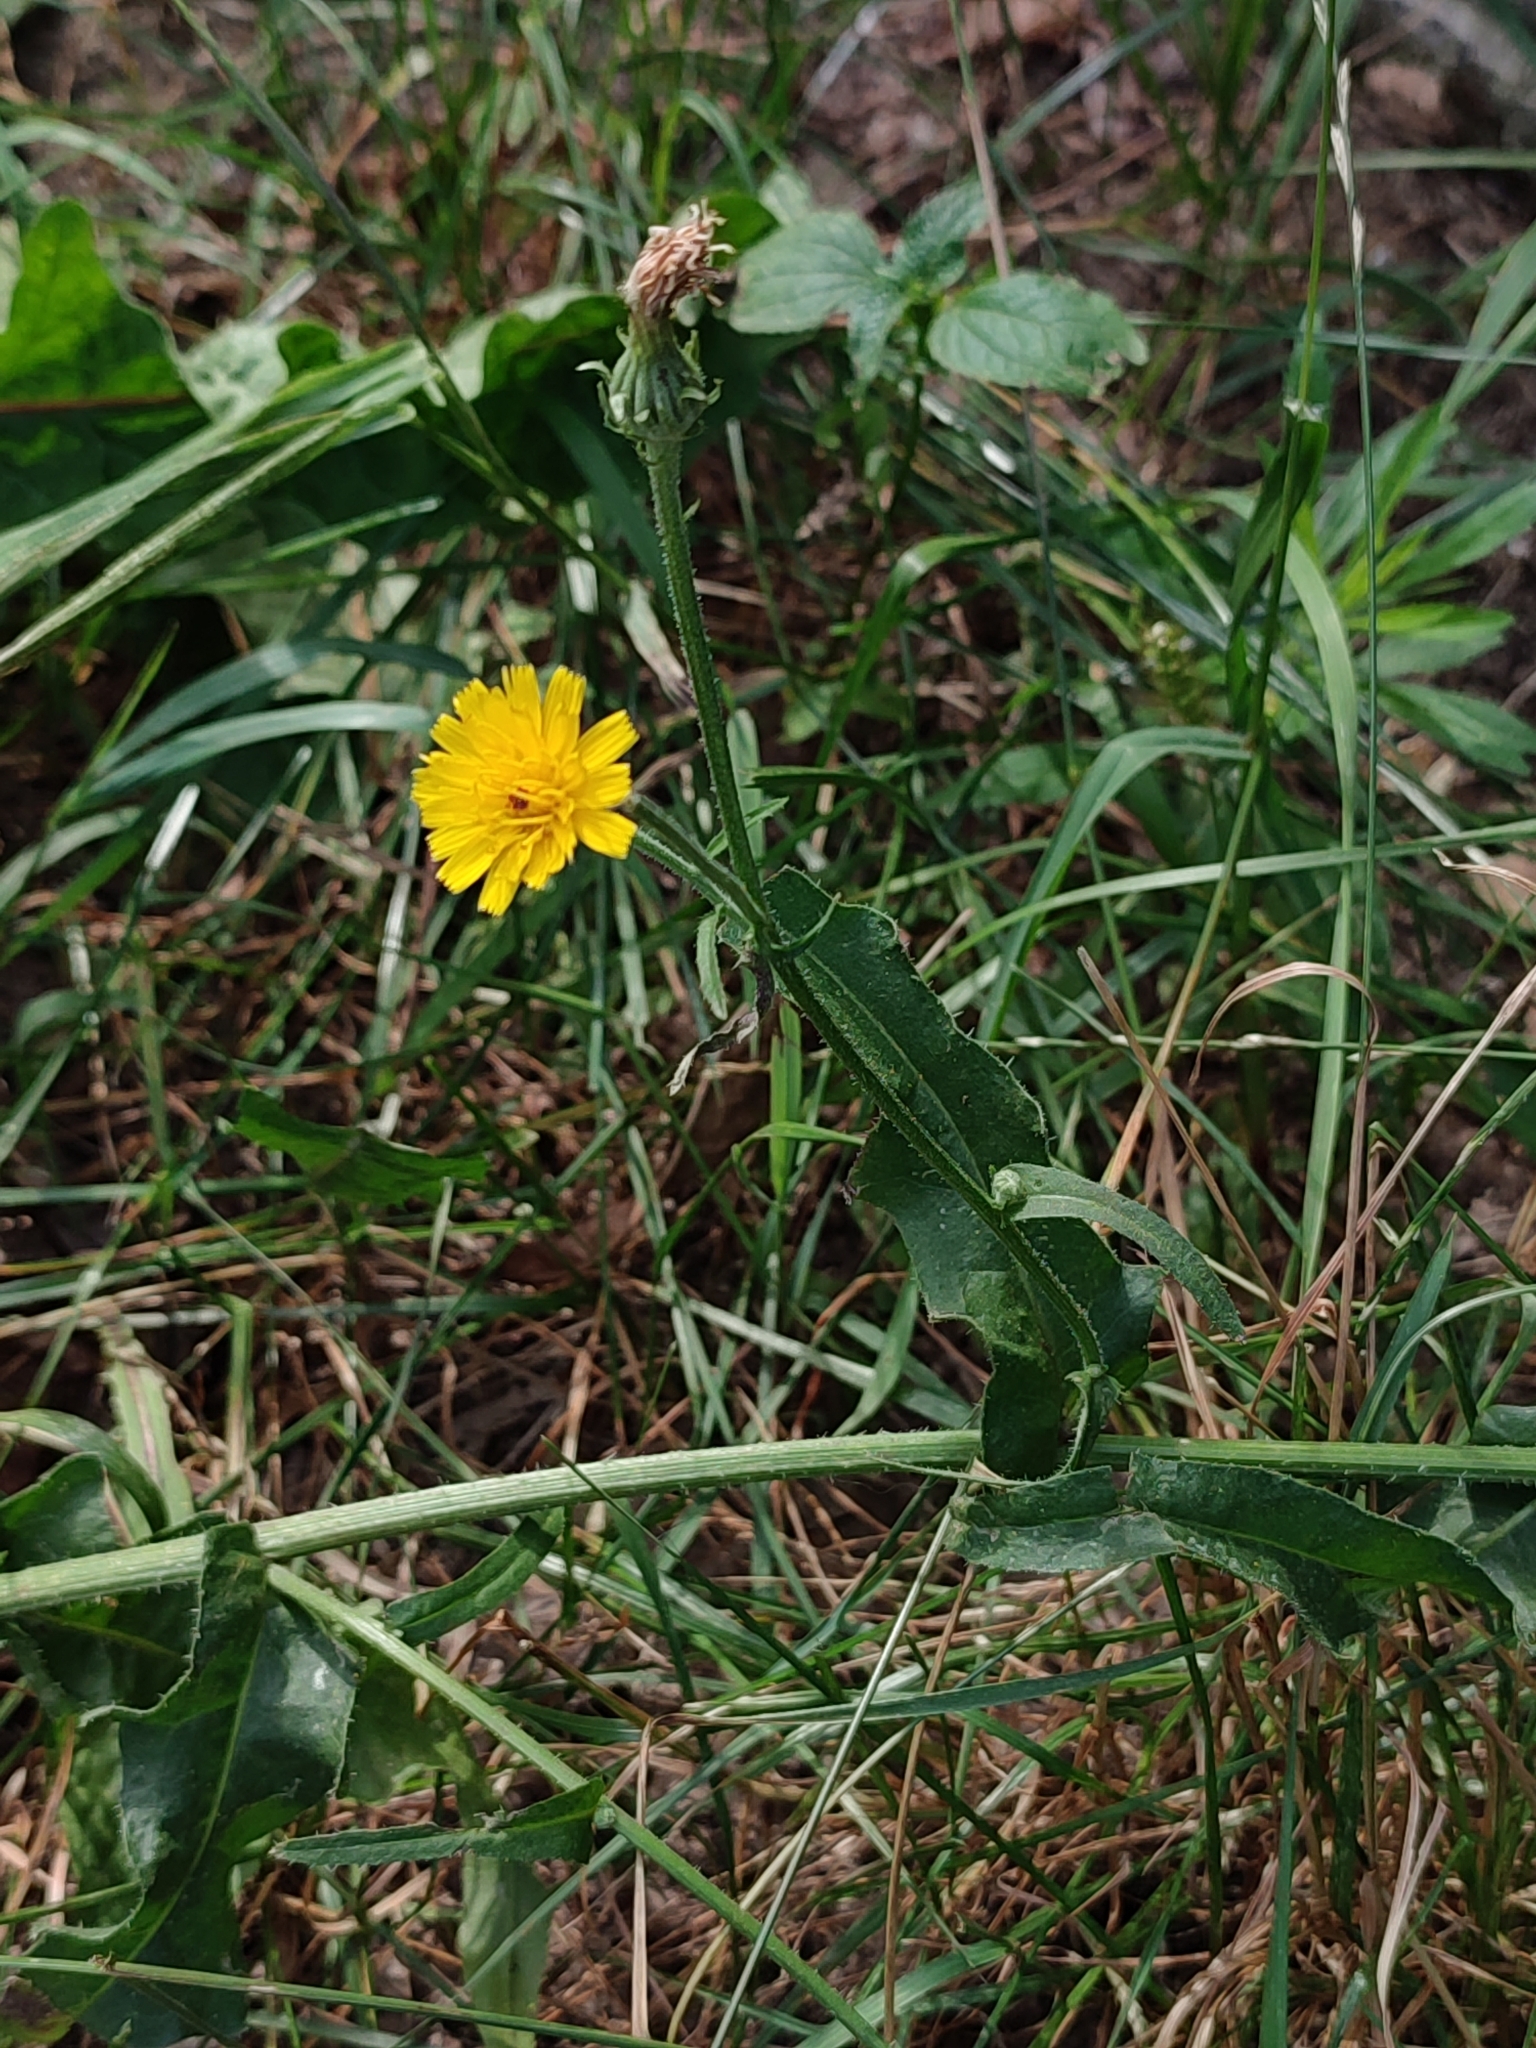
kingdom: Plantae
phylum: Tracheophyta
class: Magnoliopsida
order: Asterales
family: Asteraceae
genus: Picris
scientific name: Picris hieracioides
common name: Hawkweed oxtongue
